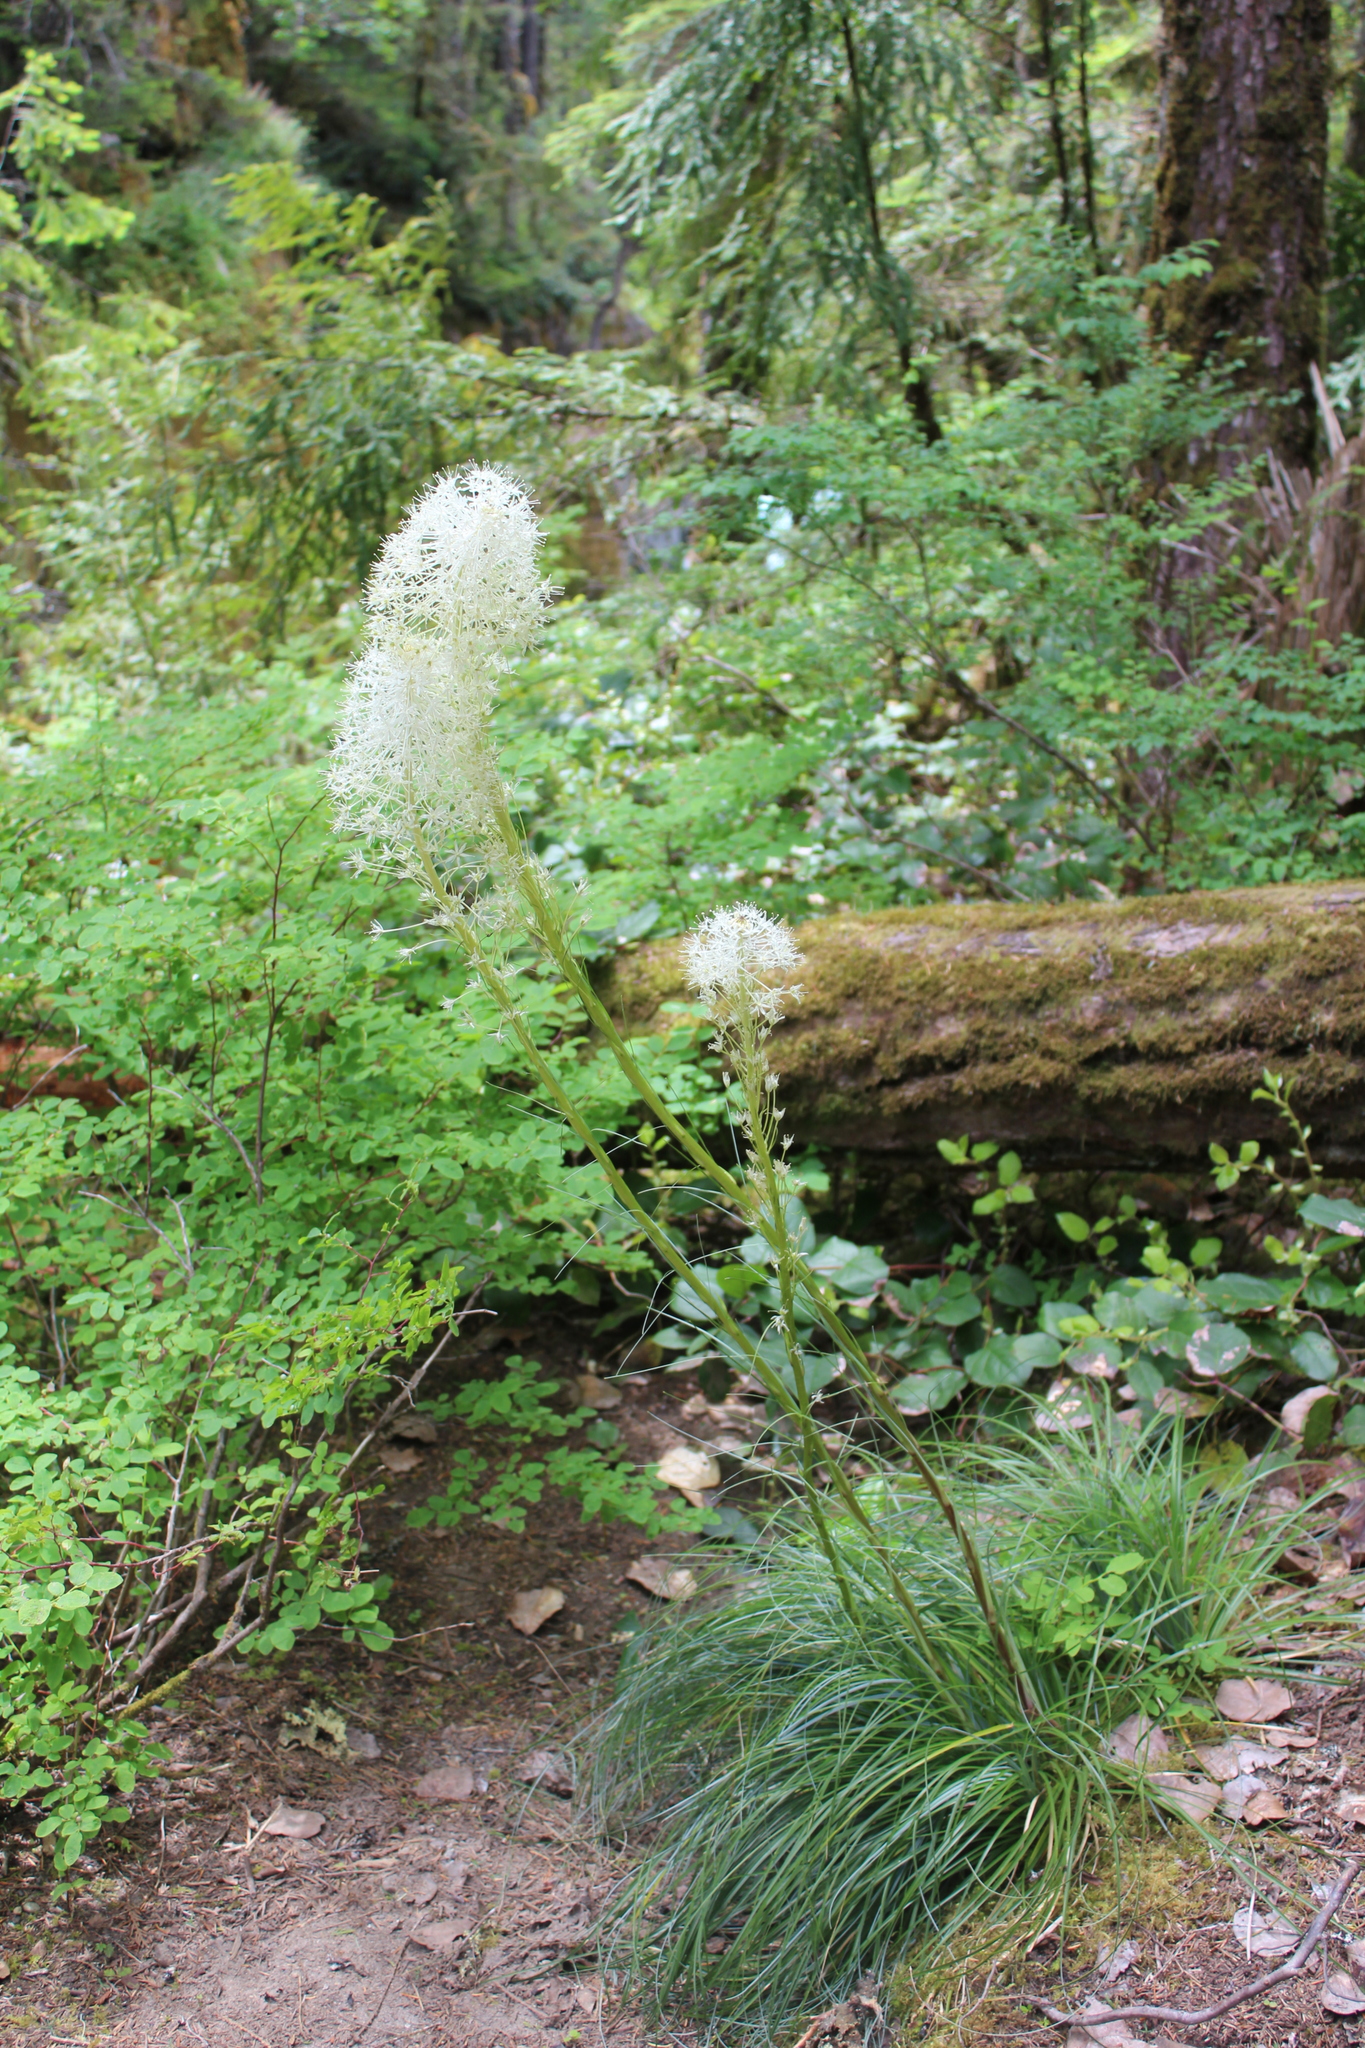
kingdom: Plantae
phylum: Tracheophyta
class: Liliopsida
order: Liliales
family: Melanthiaceae
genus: Xerophyllum
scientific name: Xerophyllum tenax
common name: Bear-grass
